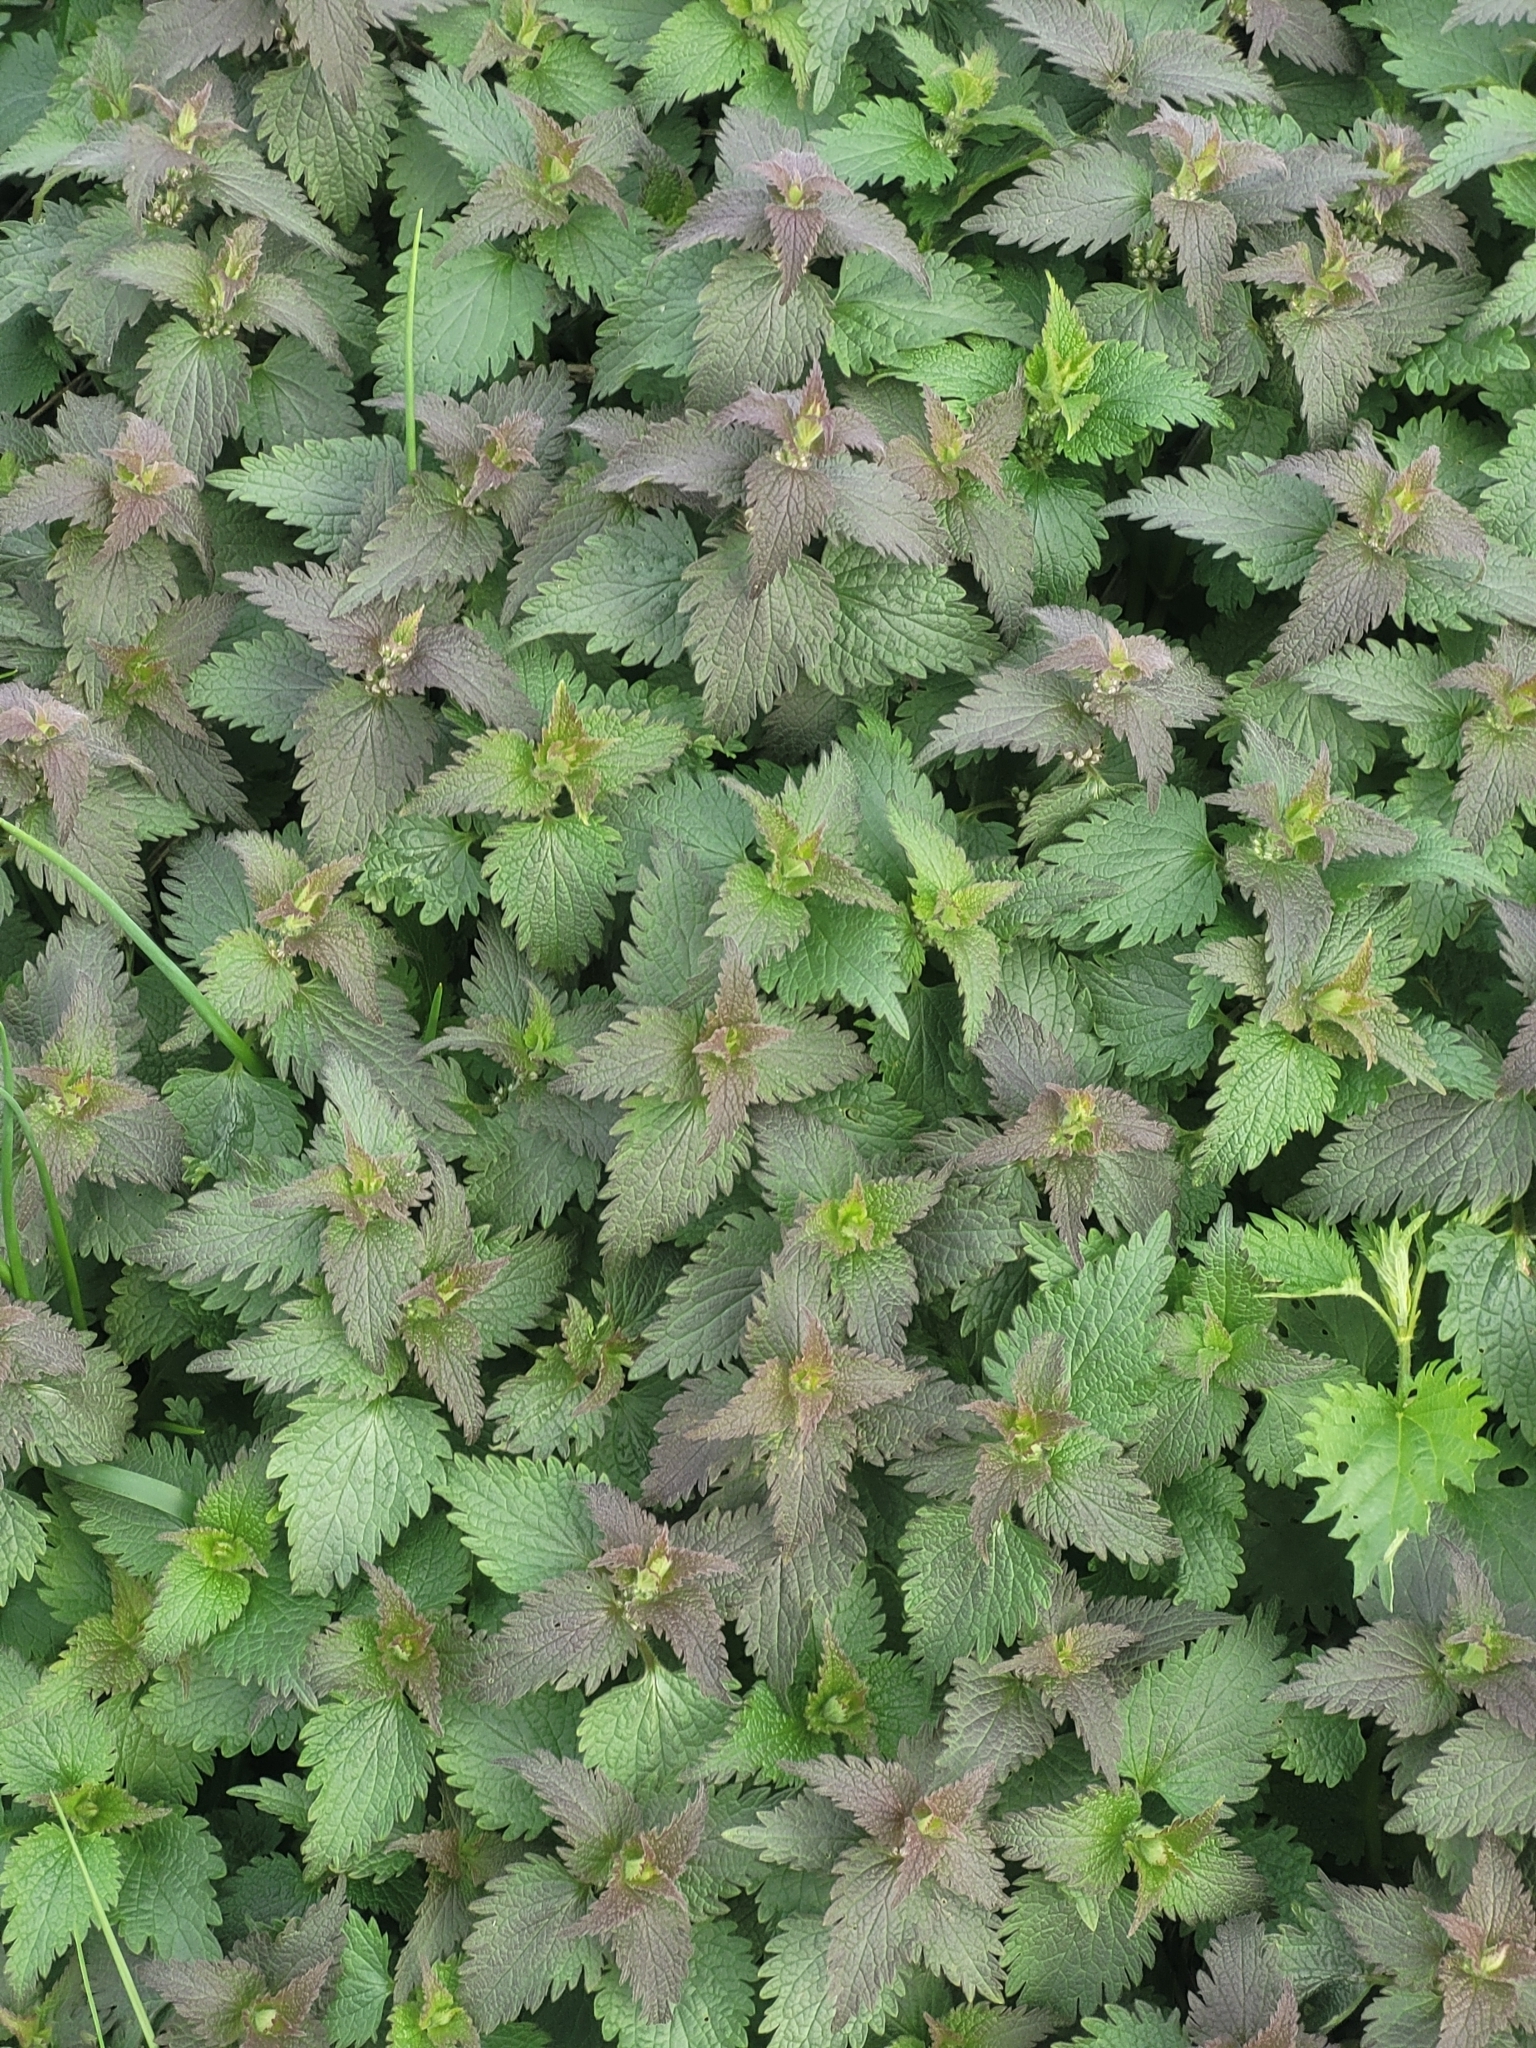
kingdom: Plantae
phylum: Tracheophyta
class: Magnoliopsida
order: Lamiales
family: Lamiaceae
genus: Lamium
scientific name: Lamium album
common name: White dead-nettle
